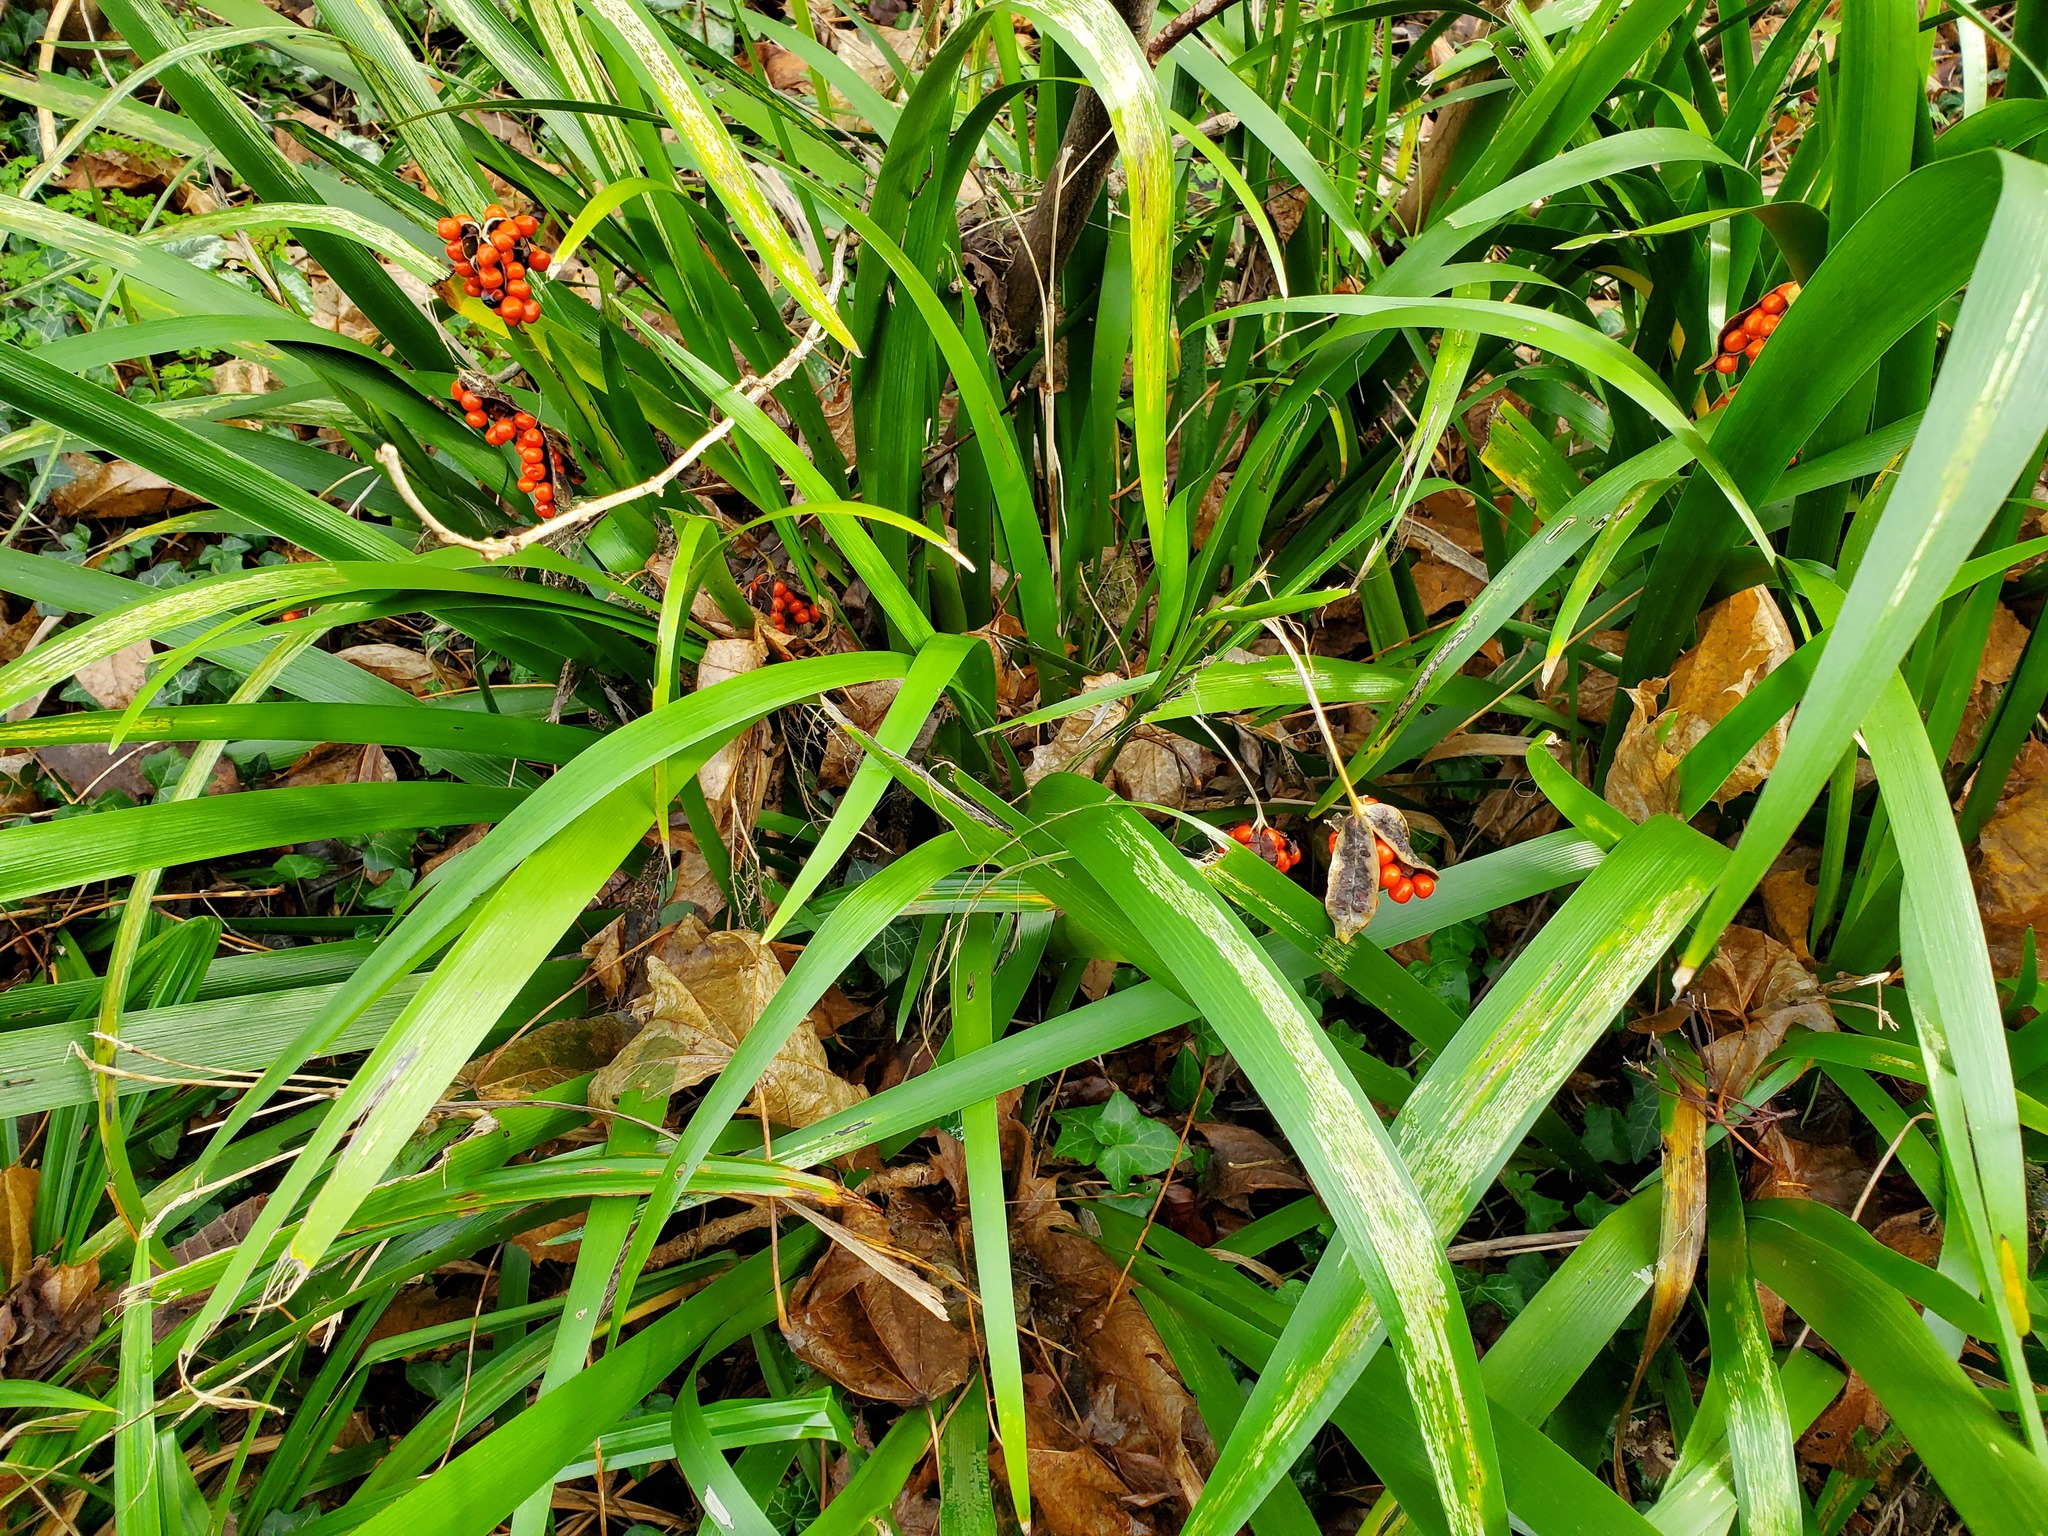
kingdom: Plantae
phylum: Tracheophyta
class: Liliopsida
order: Asparagales
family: Iridaceae
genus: Iris
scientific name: Iris foetidissima
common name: Stinking iris
